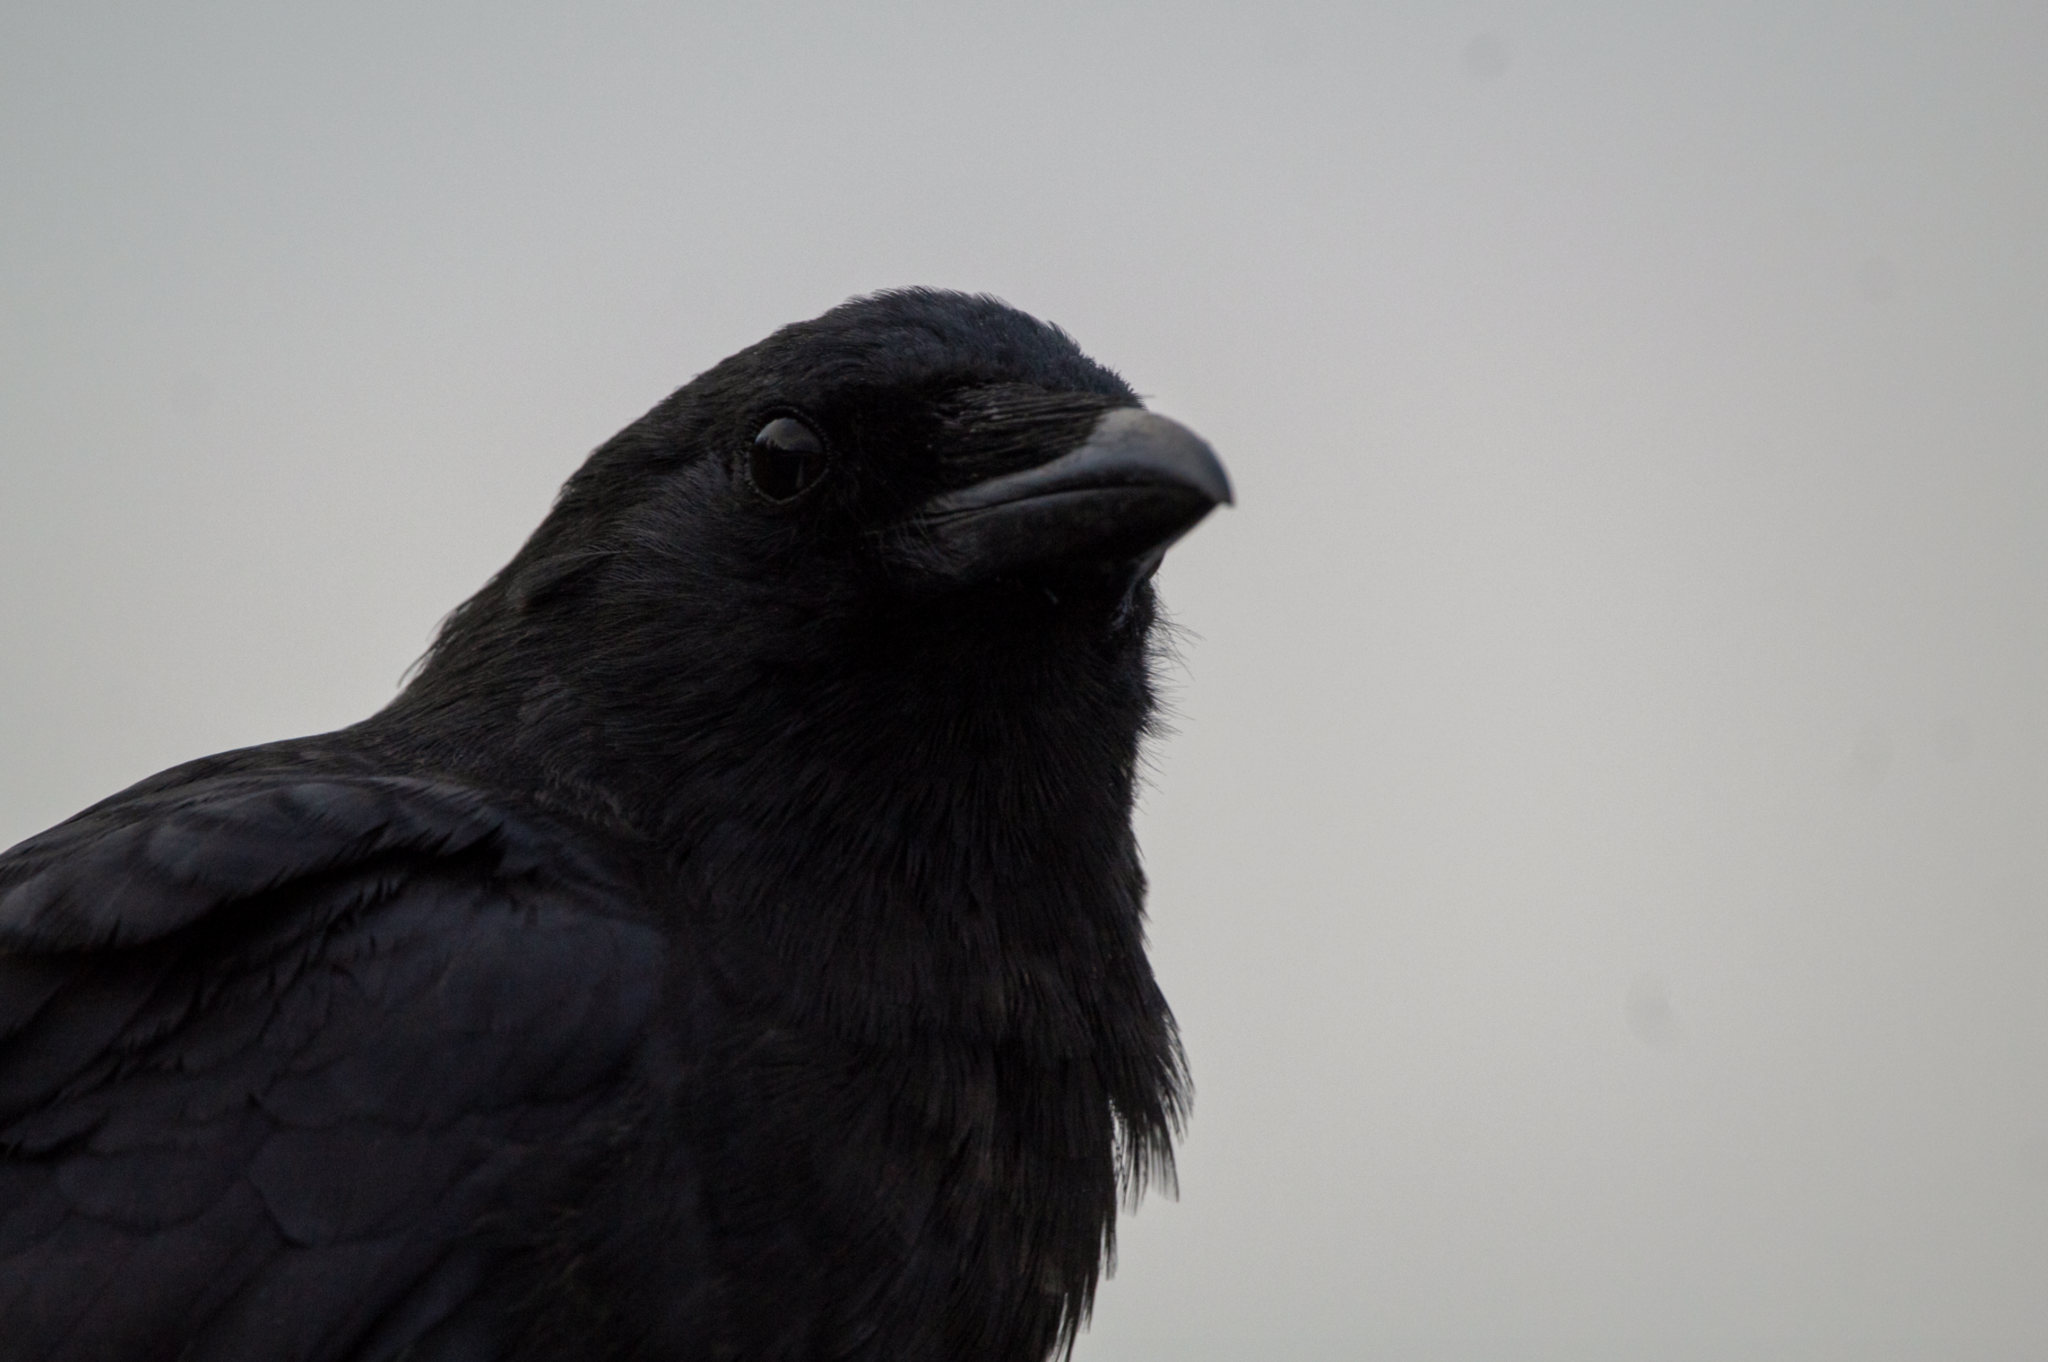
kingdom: Animalia
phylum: Chordata
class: Aves
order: Passeriformes
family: Corvidae
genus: Corvus
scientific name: Corvus brachyrhynchos
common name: American crow
